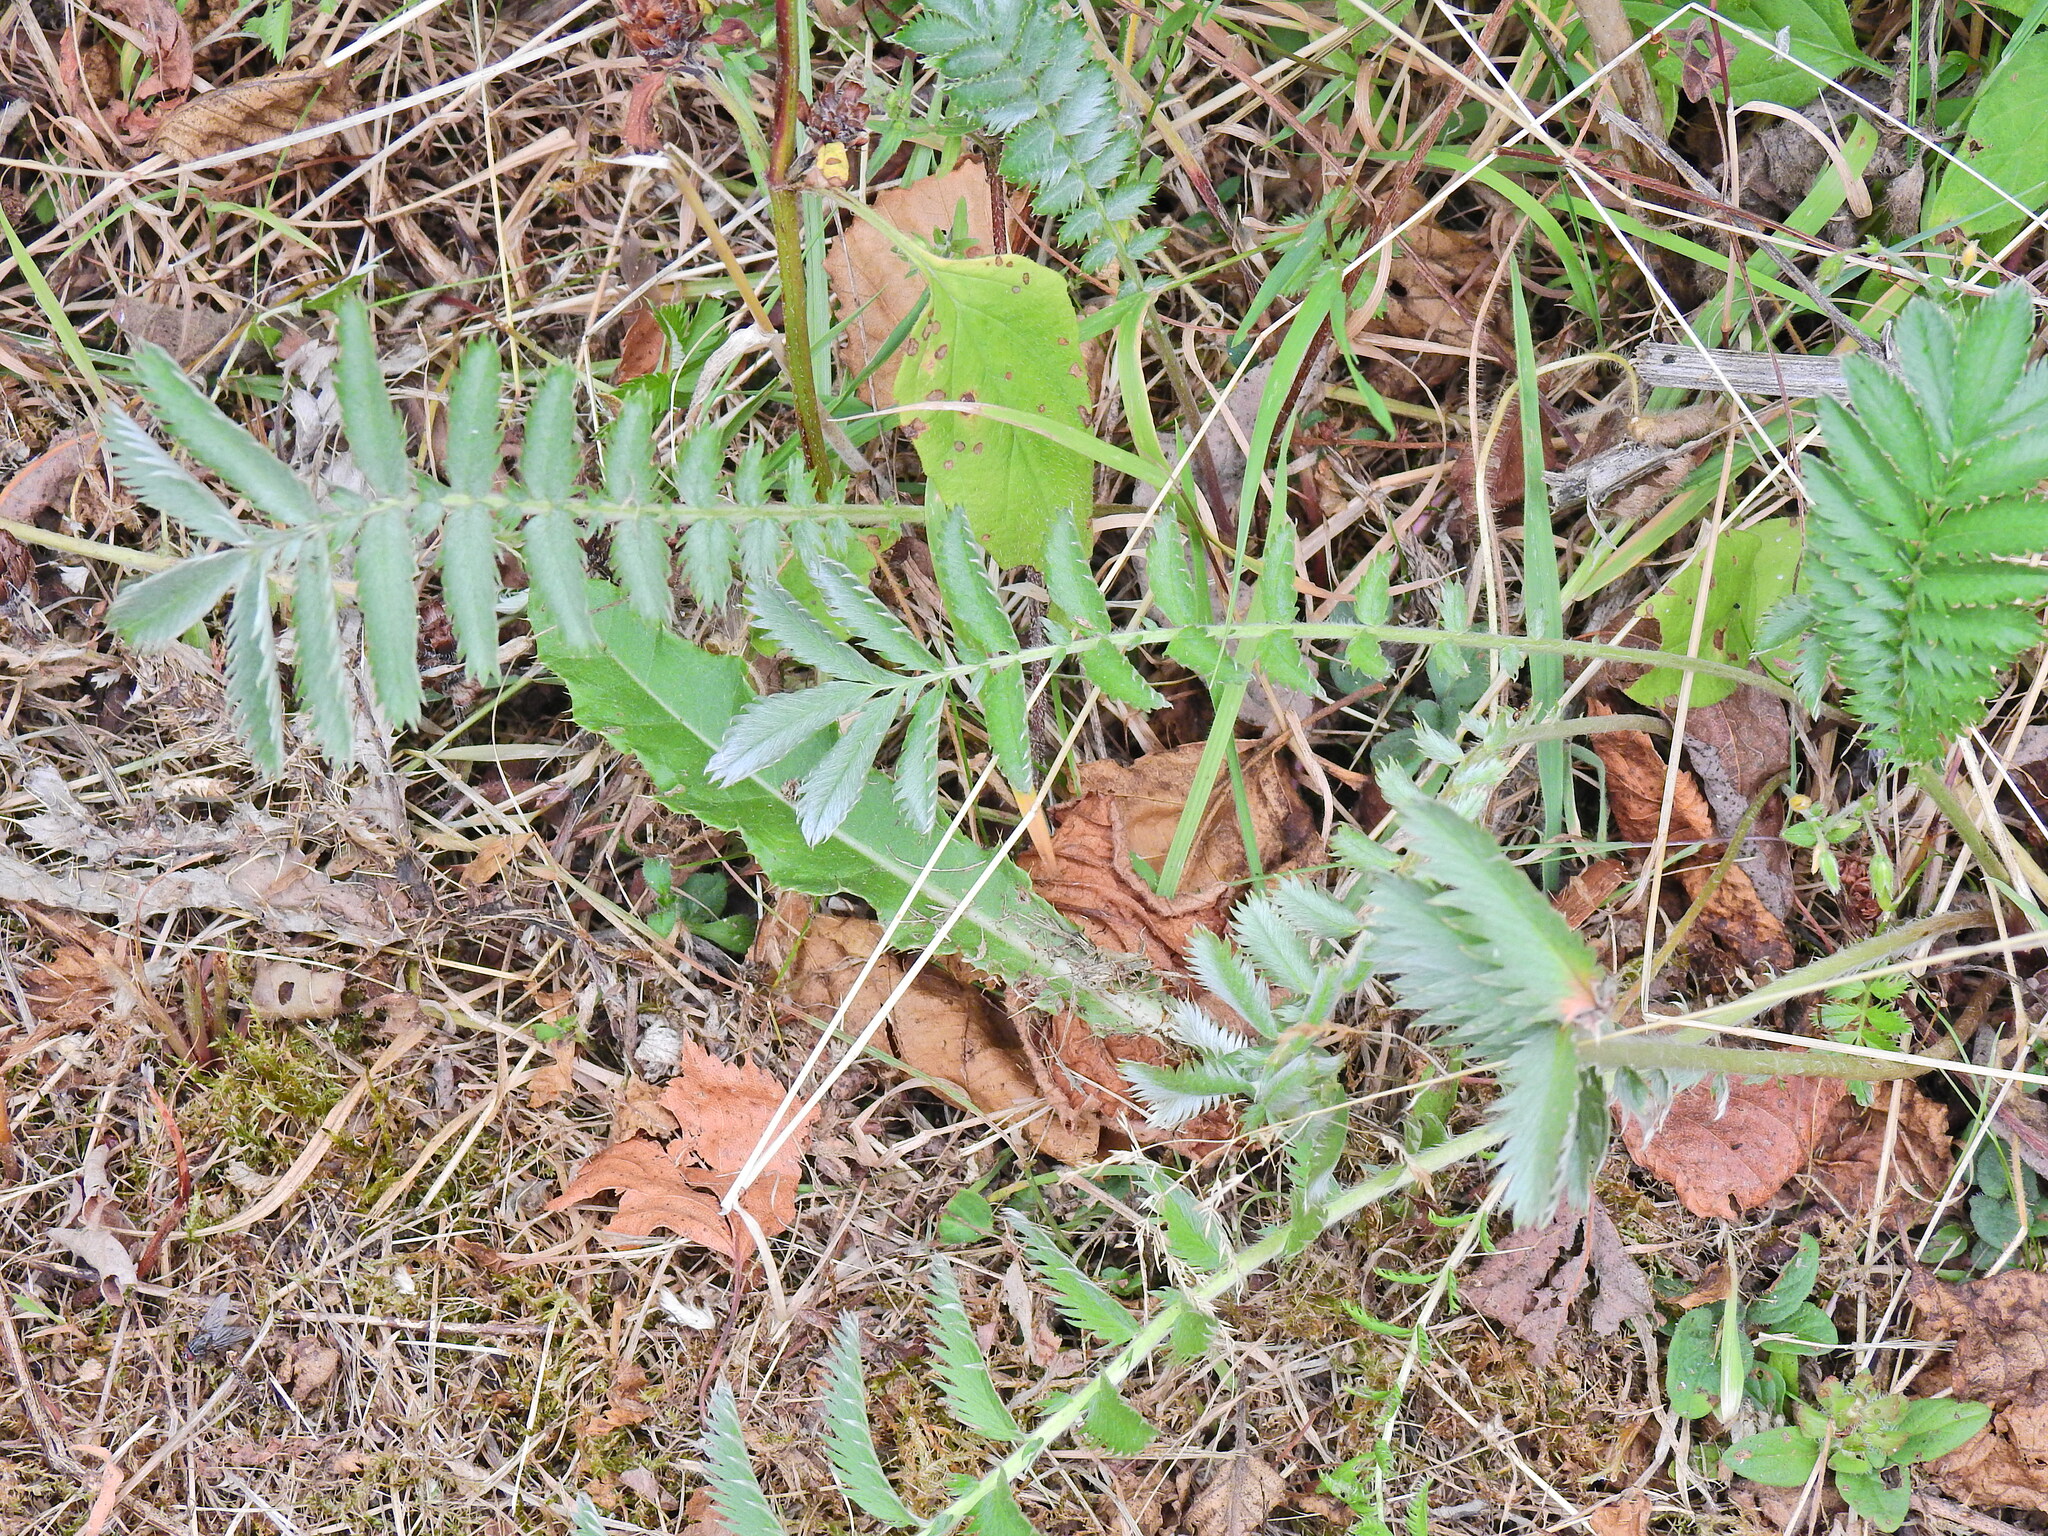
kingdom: Plantae
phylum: Tracheophyta
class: Magnoliopsida
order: Rosales
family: Rosaceae
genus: Argentina
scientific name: Argentina anserina
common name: Common silverweed
